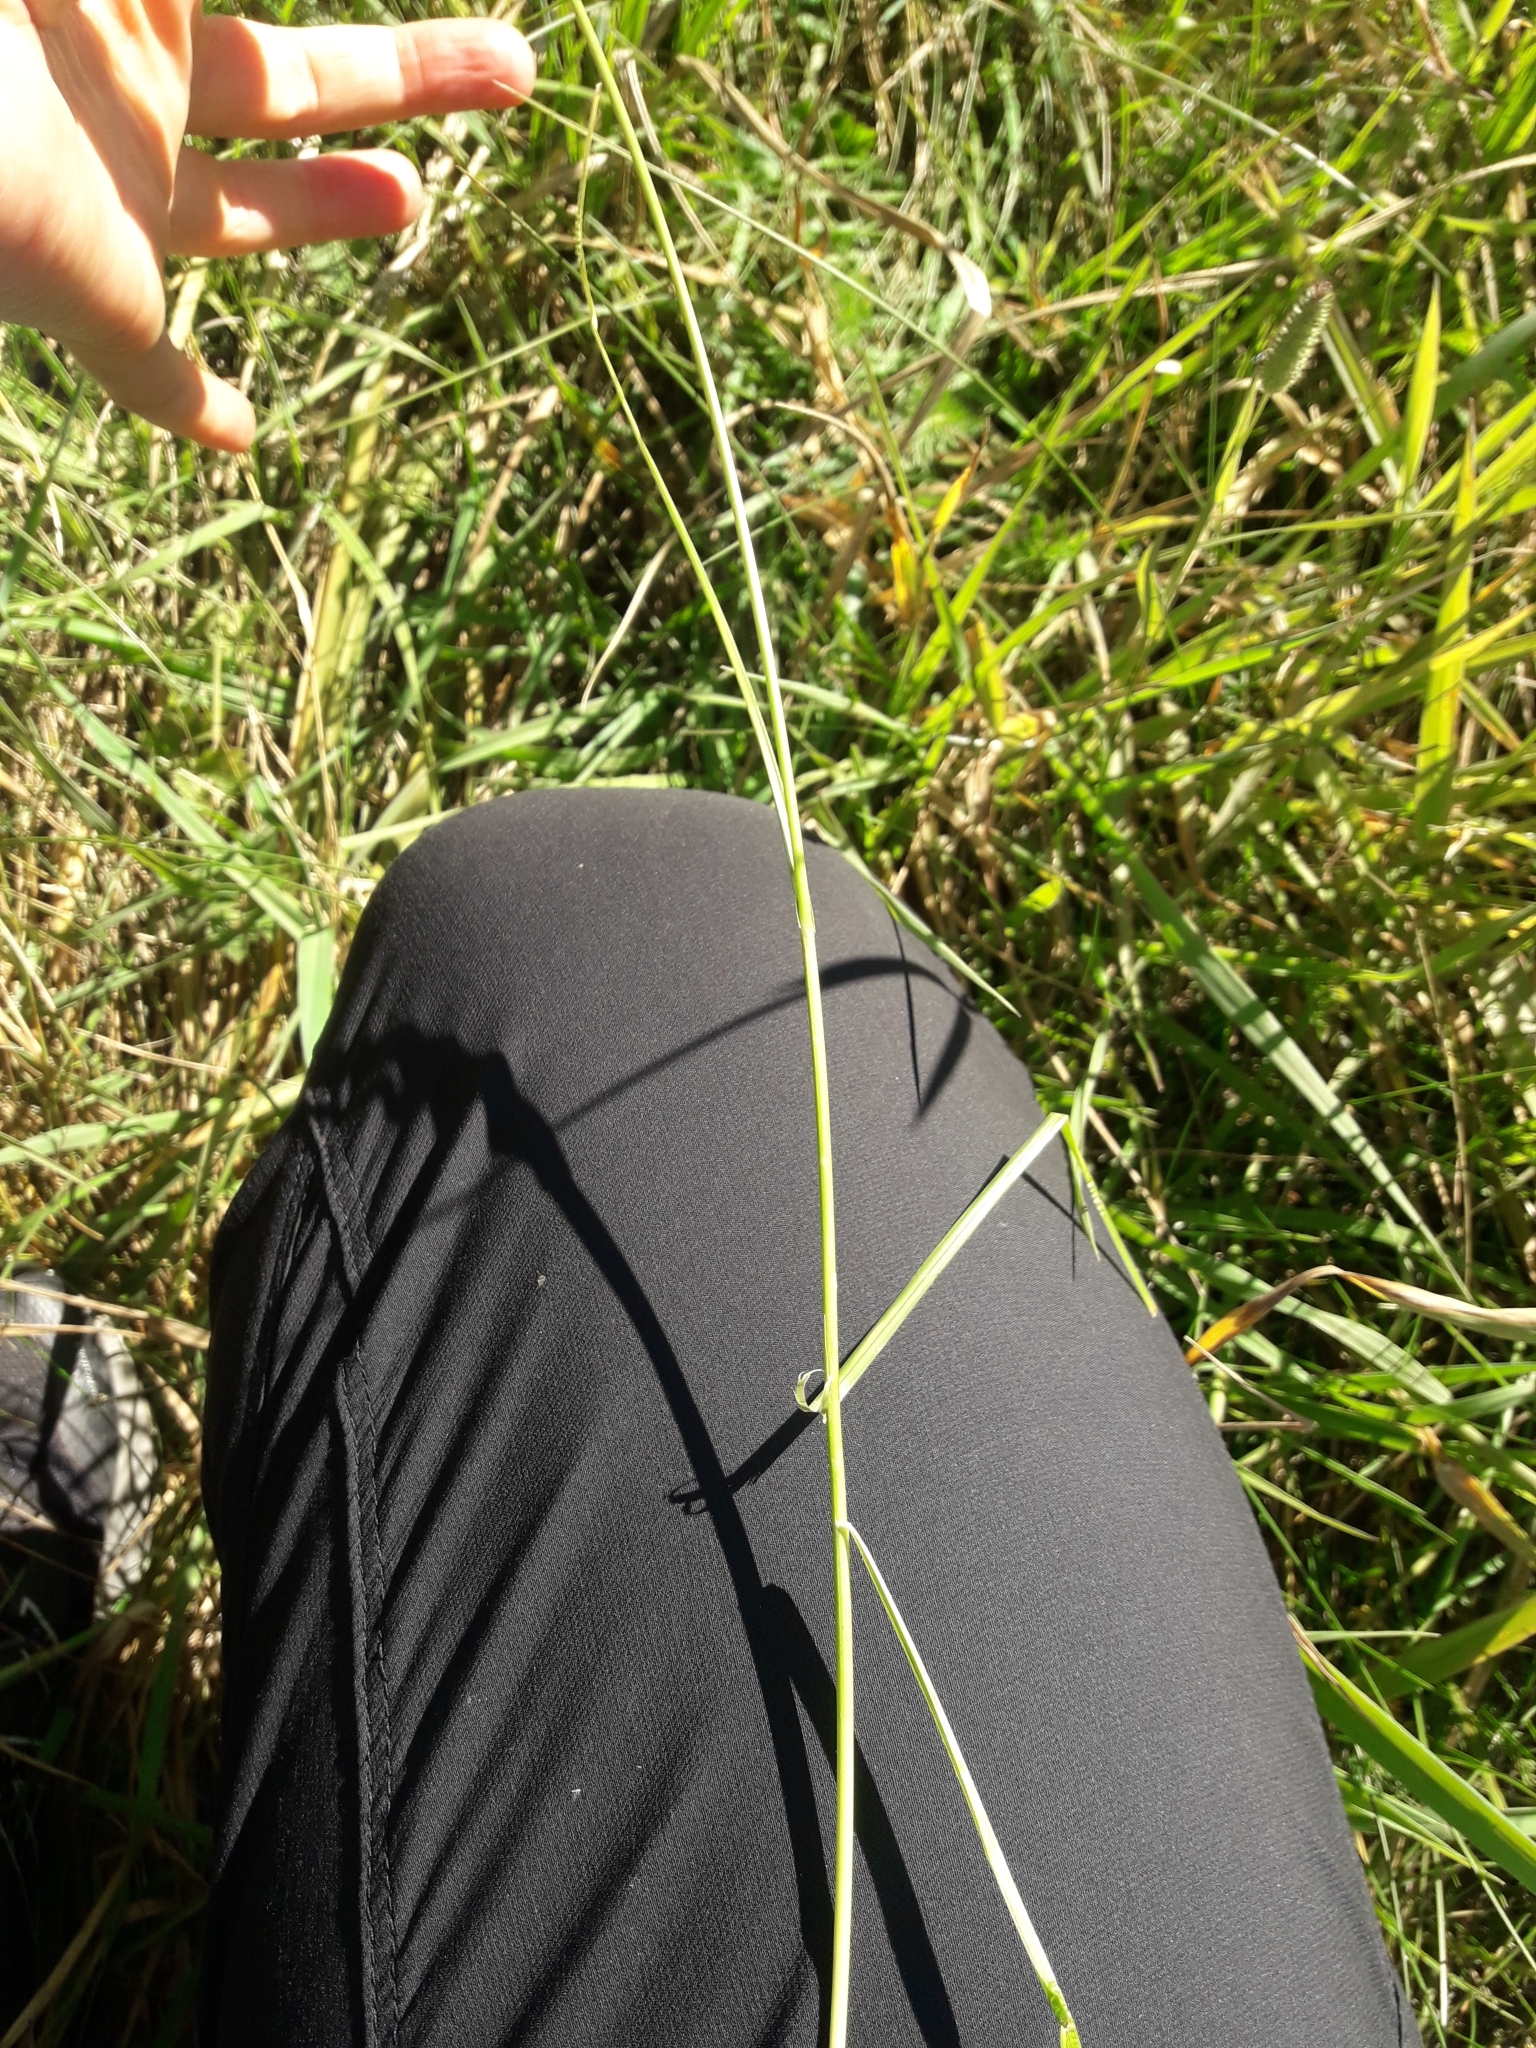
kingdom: Plantae
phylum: Tracheophyta
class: Liliopsida
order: Poales
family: Cyperaceae
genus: Carex
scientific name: Carex leporina
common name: Oval sedge
